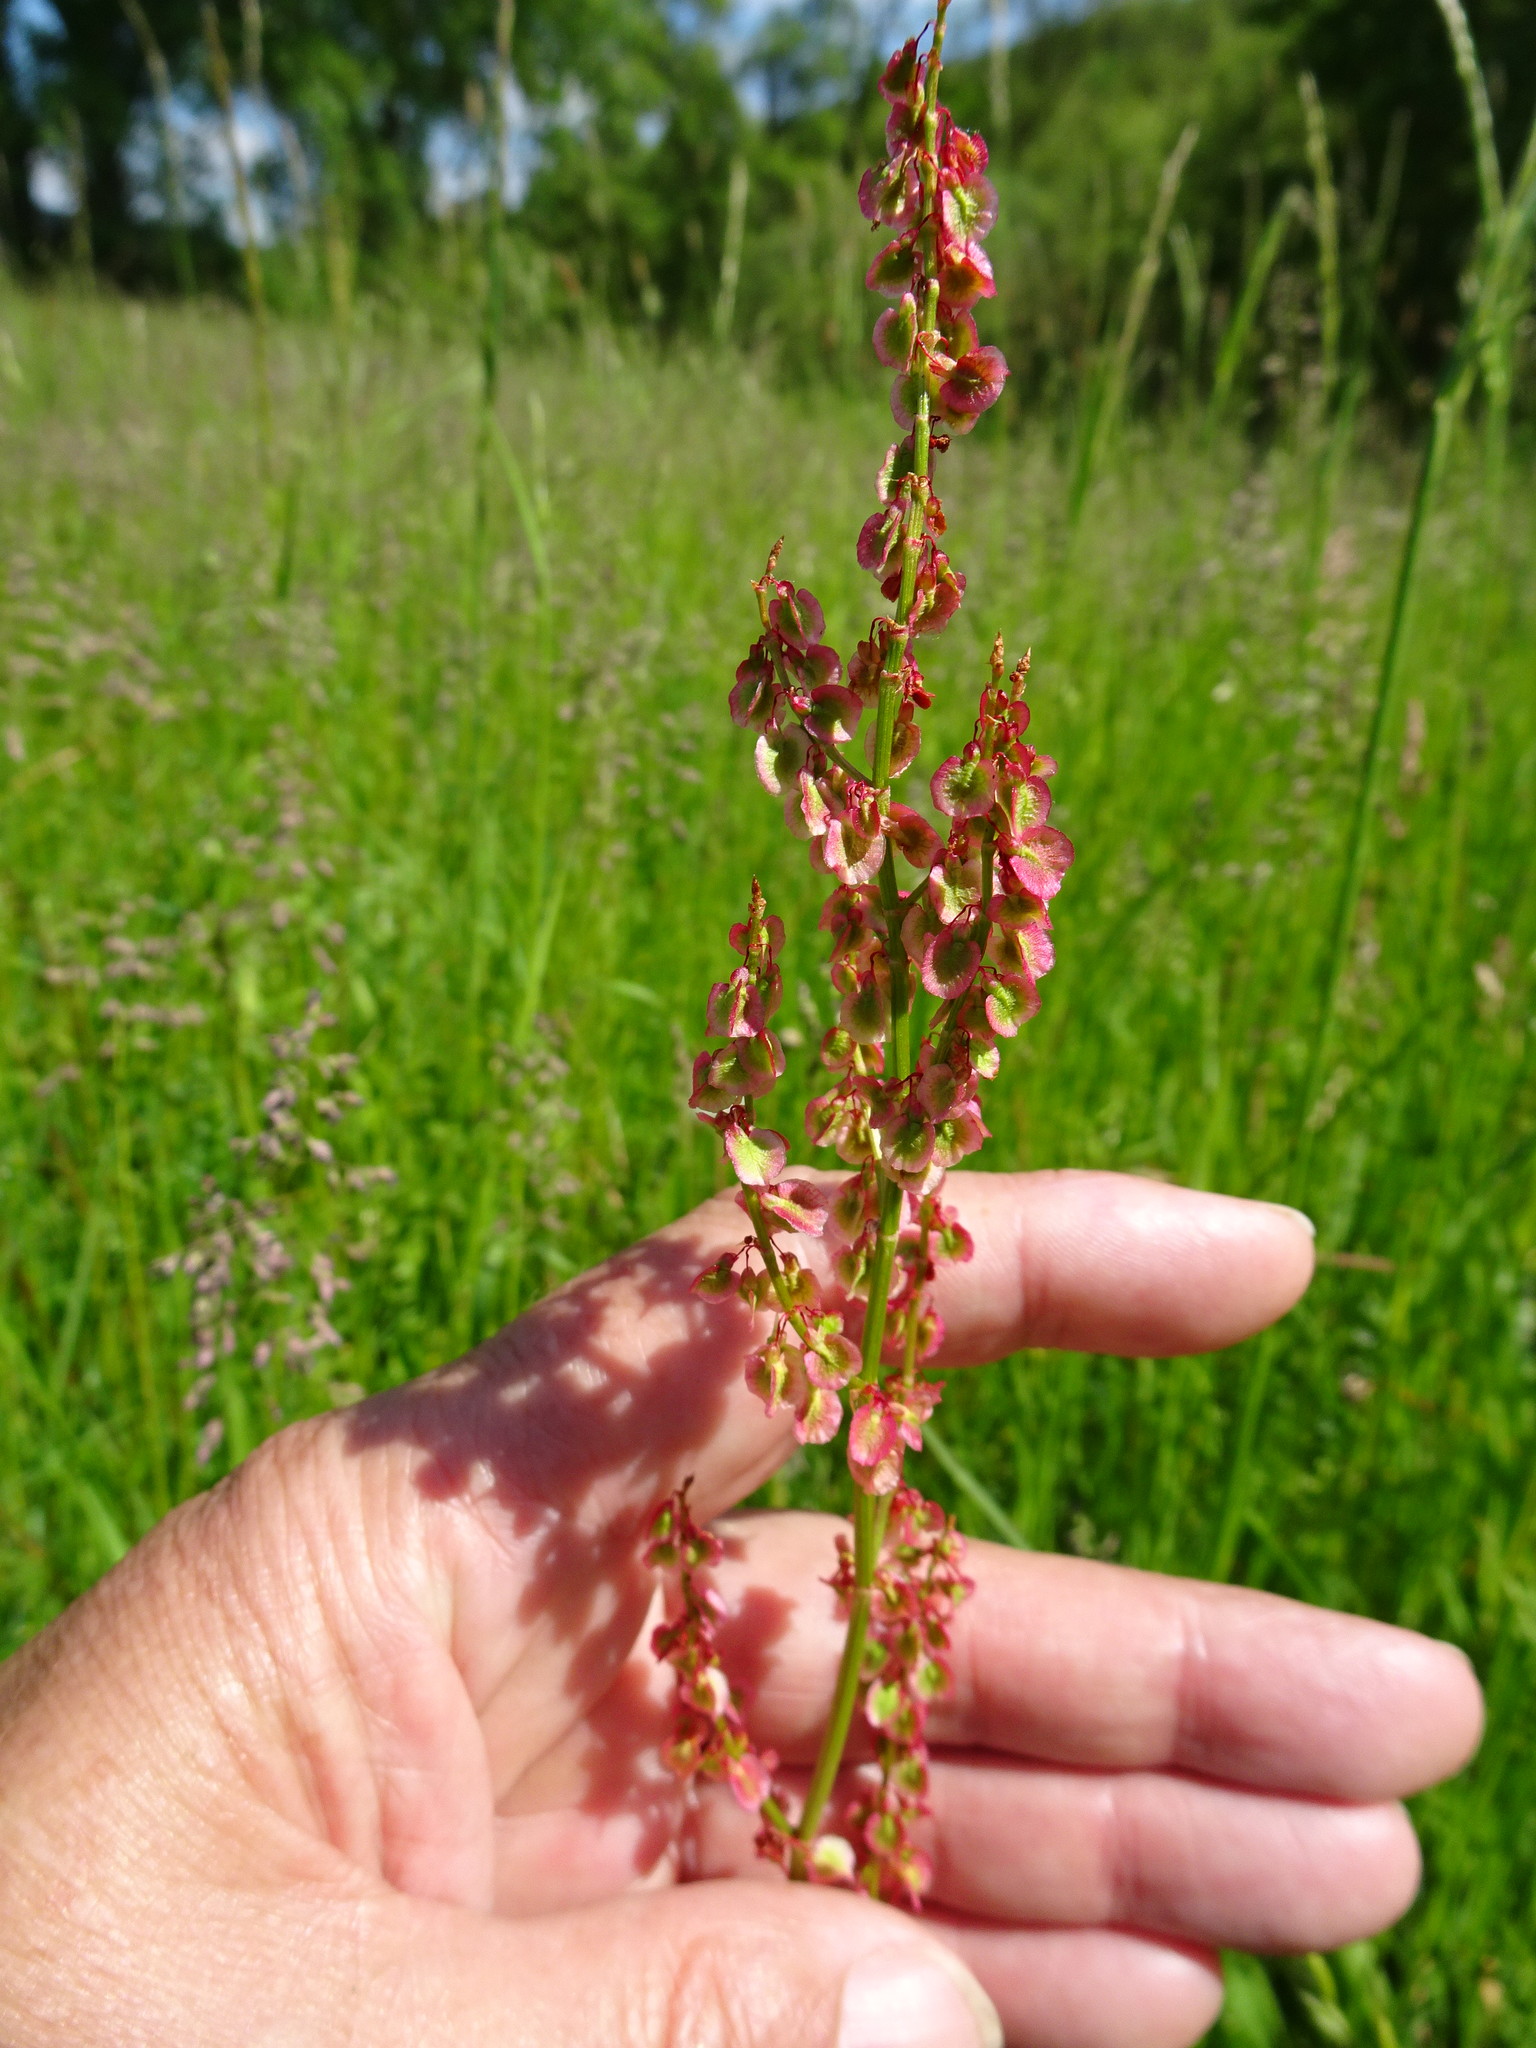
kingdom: Plantae
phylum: Tracheophyta
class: Magnoliopsida
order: Caryophyllales
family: Polygonaceae
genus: Rumex
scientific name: Rumex acetosa
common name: Garden sorrel
